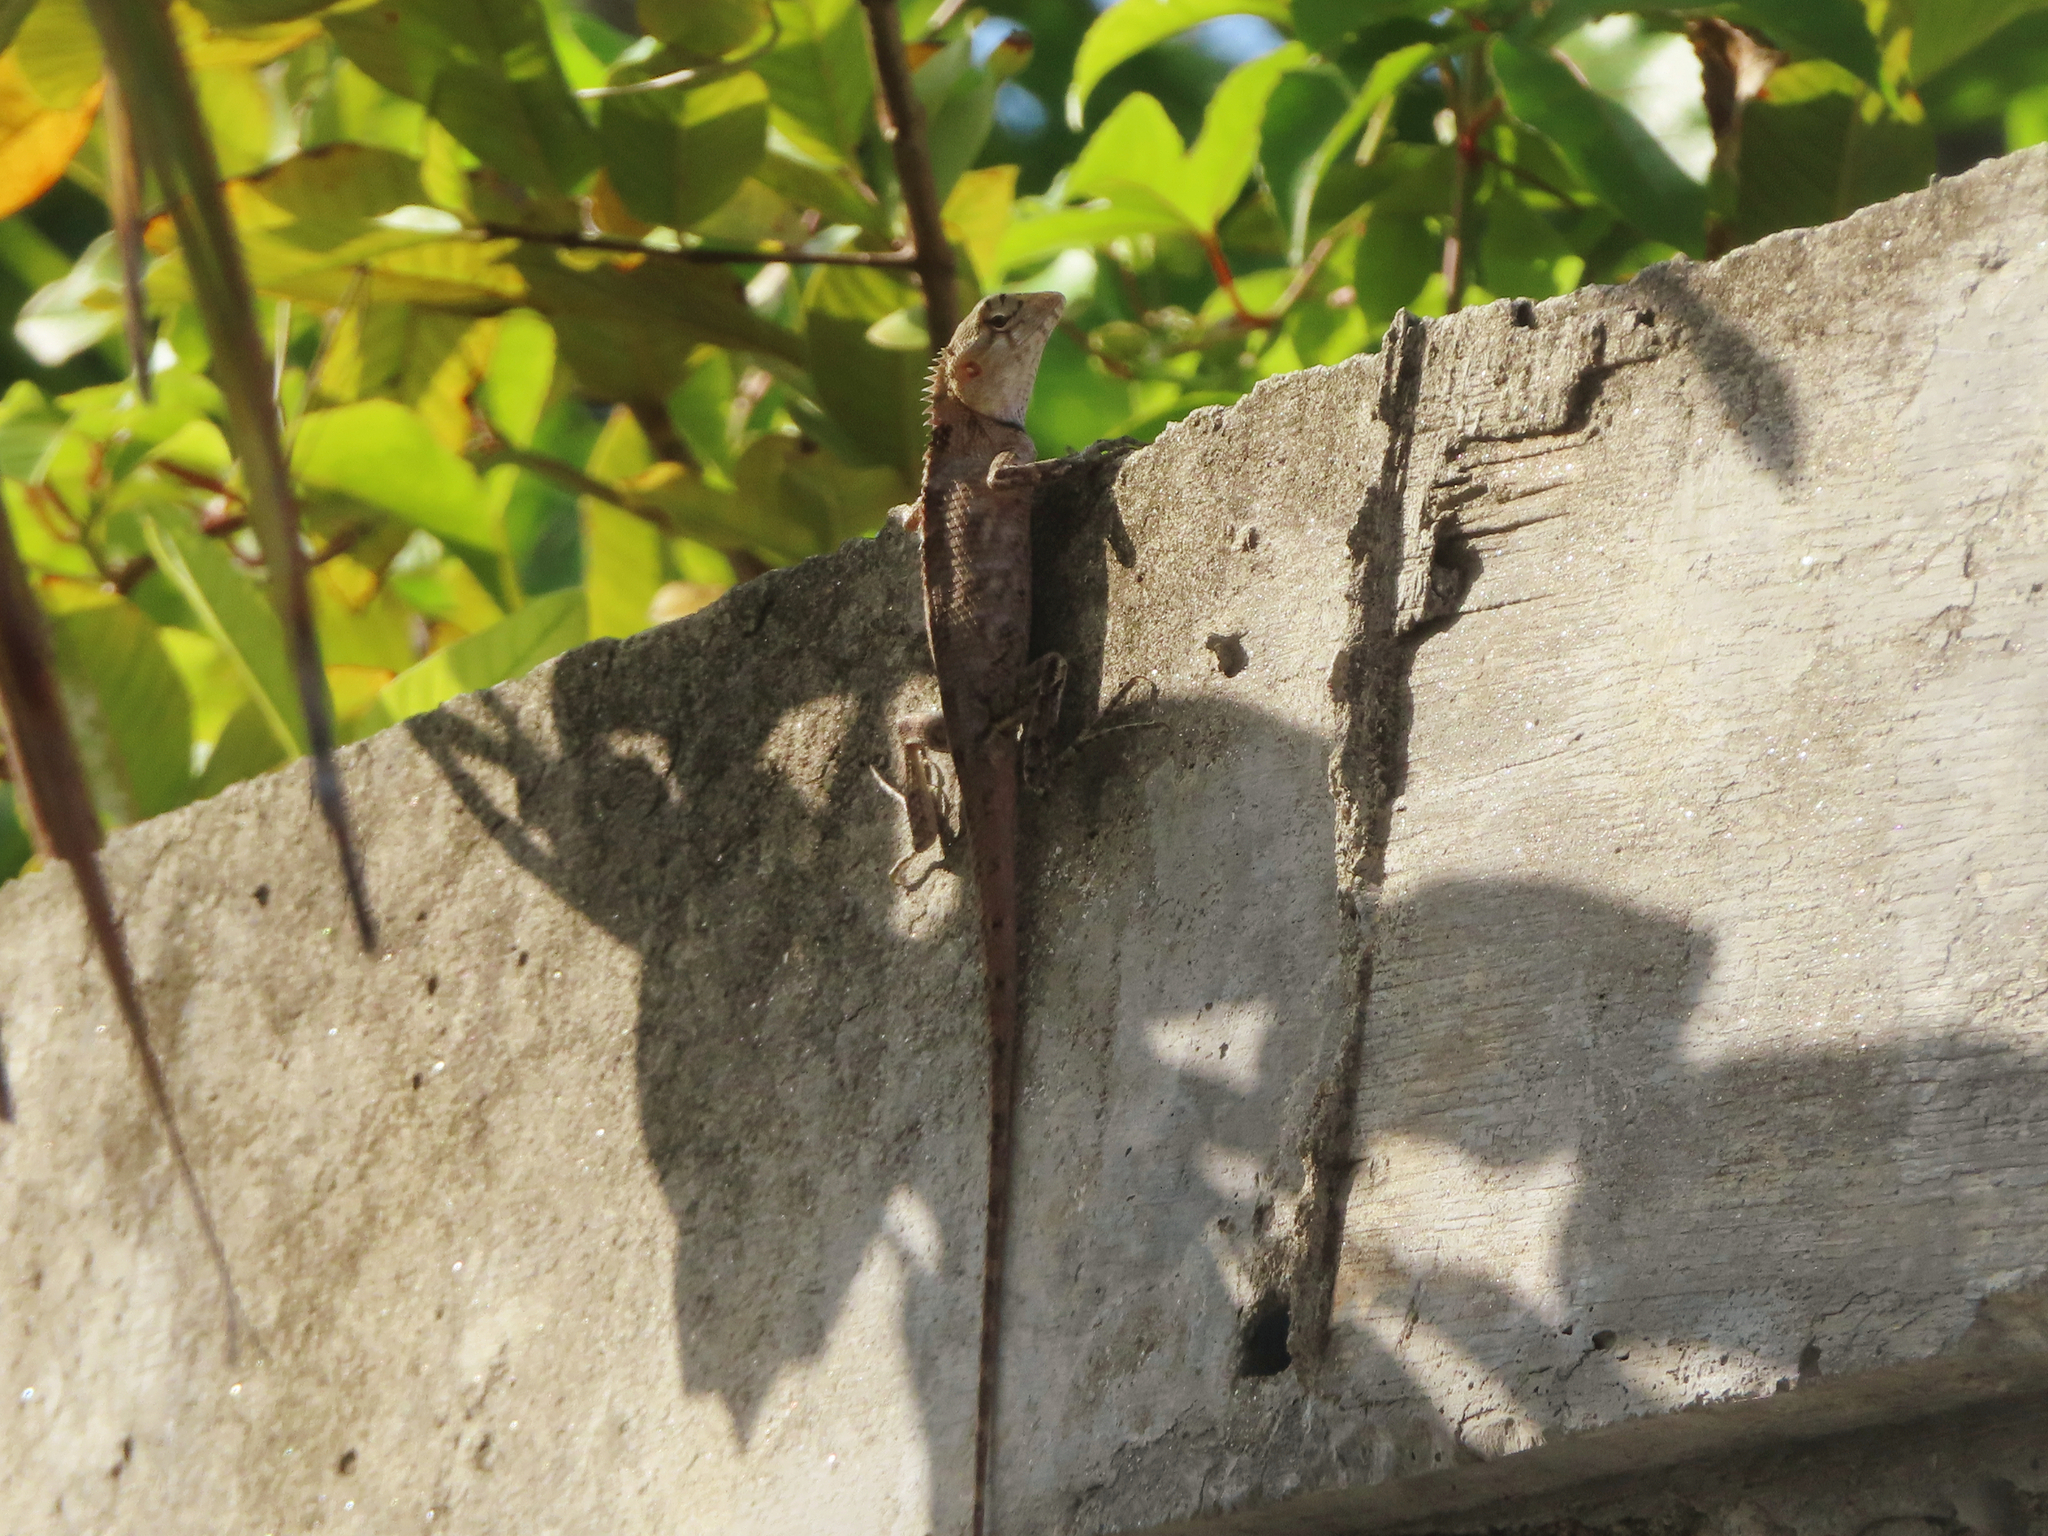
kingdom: Animalia
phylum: Chordata
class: Squamata
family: Agamidae
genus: Calotes
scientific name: Calotes versicolor
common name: Oriental garden lizard
